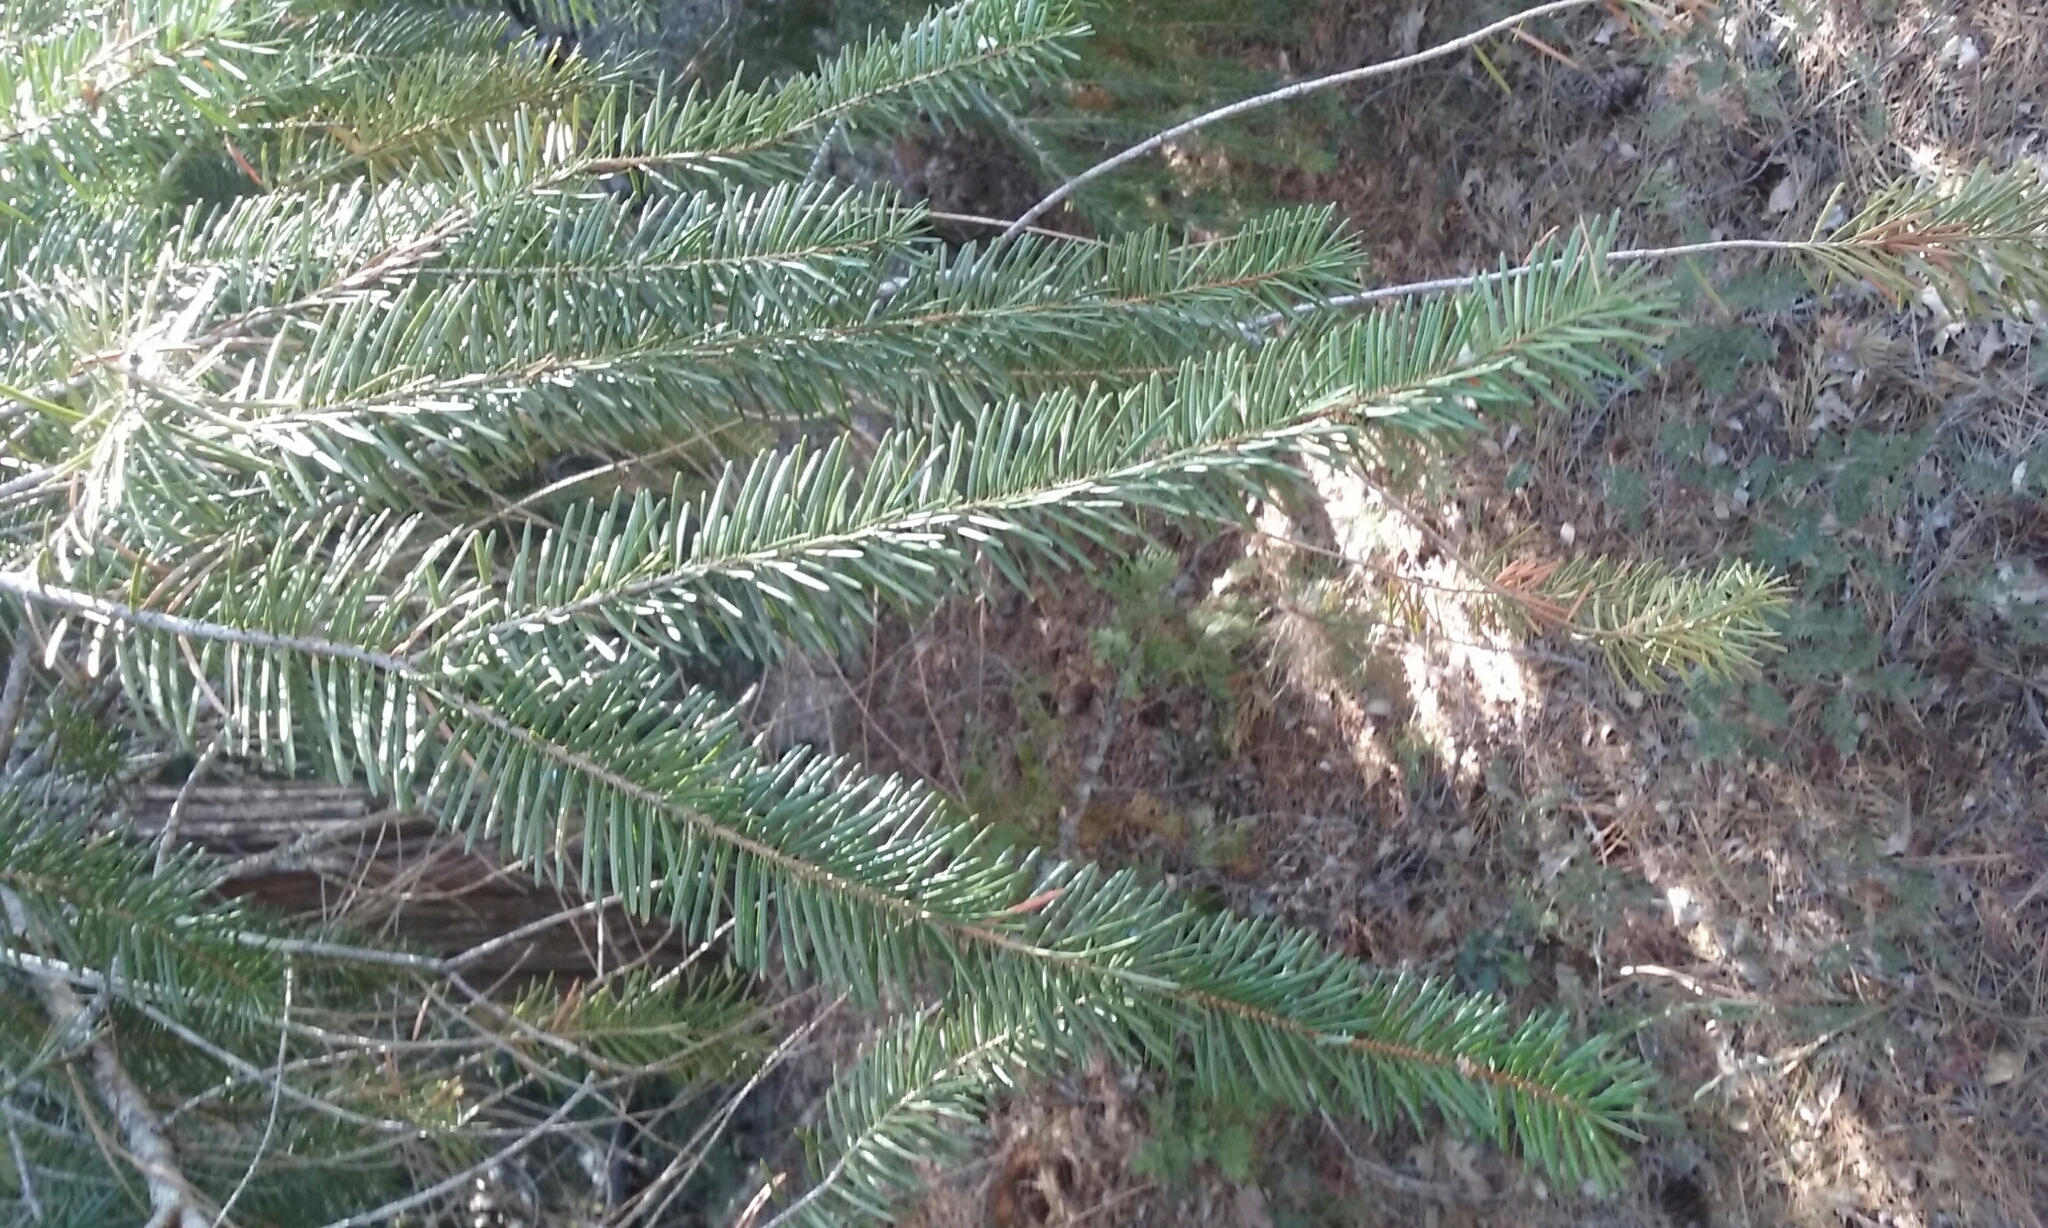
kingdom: Plantae
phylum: Tracheophyta
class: Pinopsida
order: Pinales
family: Pinaceae
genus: Pseudotsuga
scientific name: Pseudotsuga menziesii
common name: Douglas fir
